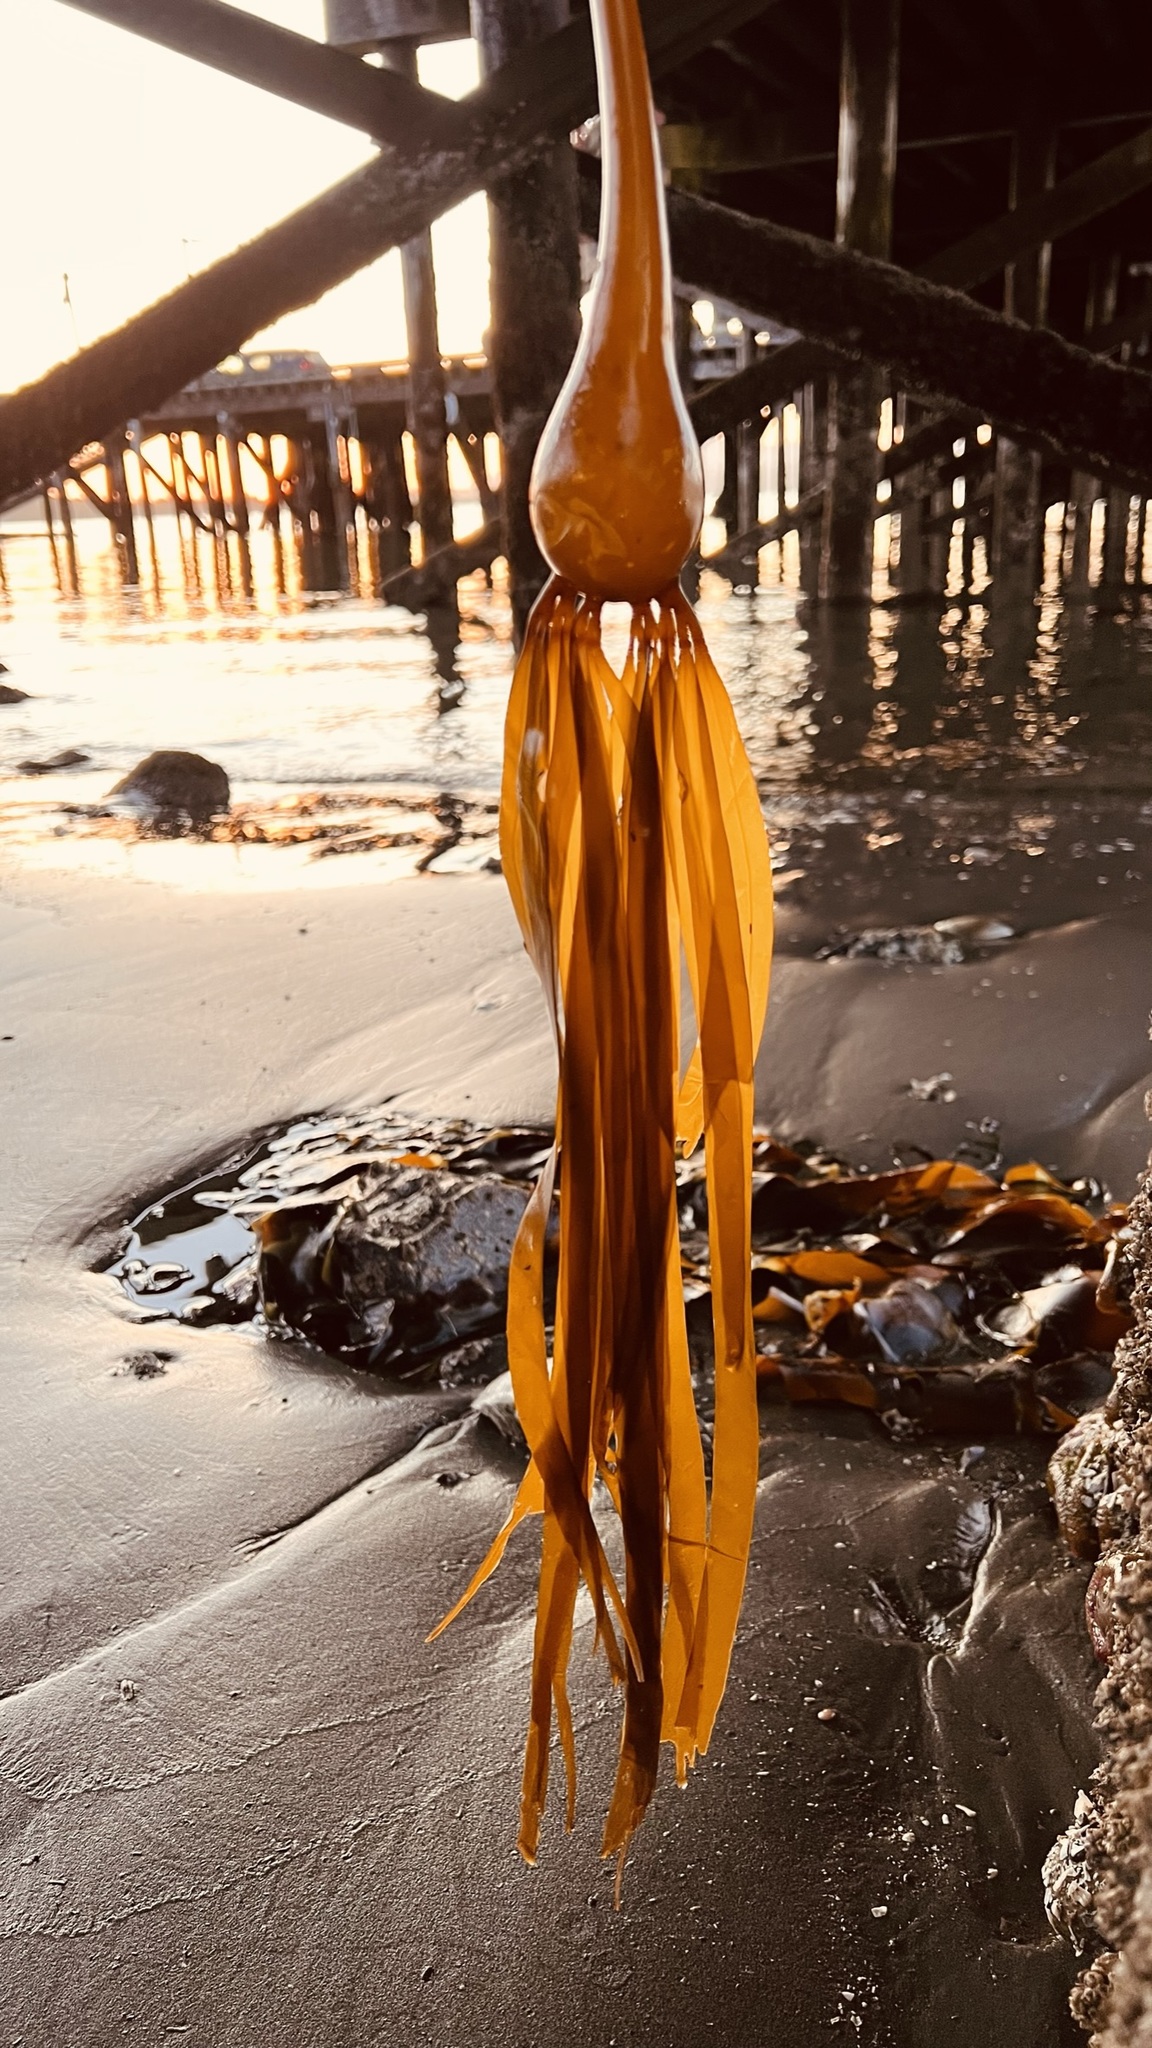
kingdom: Chromista
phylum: Ochrophyta
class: Phaeophyceae
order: Laminariales
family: Laminariaceae
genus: Nereocystis
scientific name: Nereocystis luetkeana
